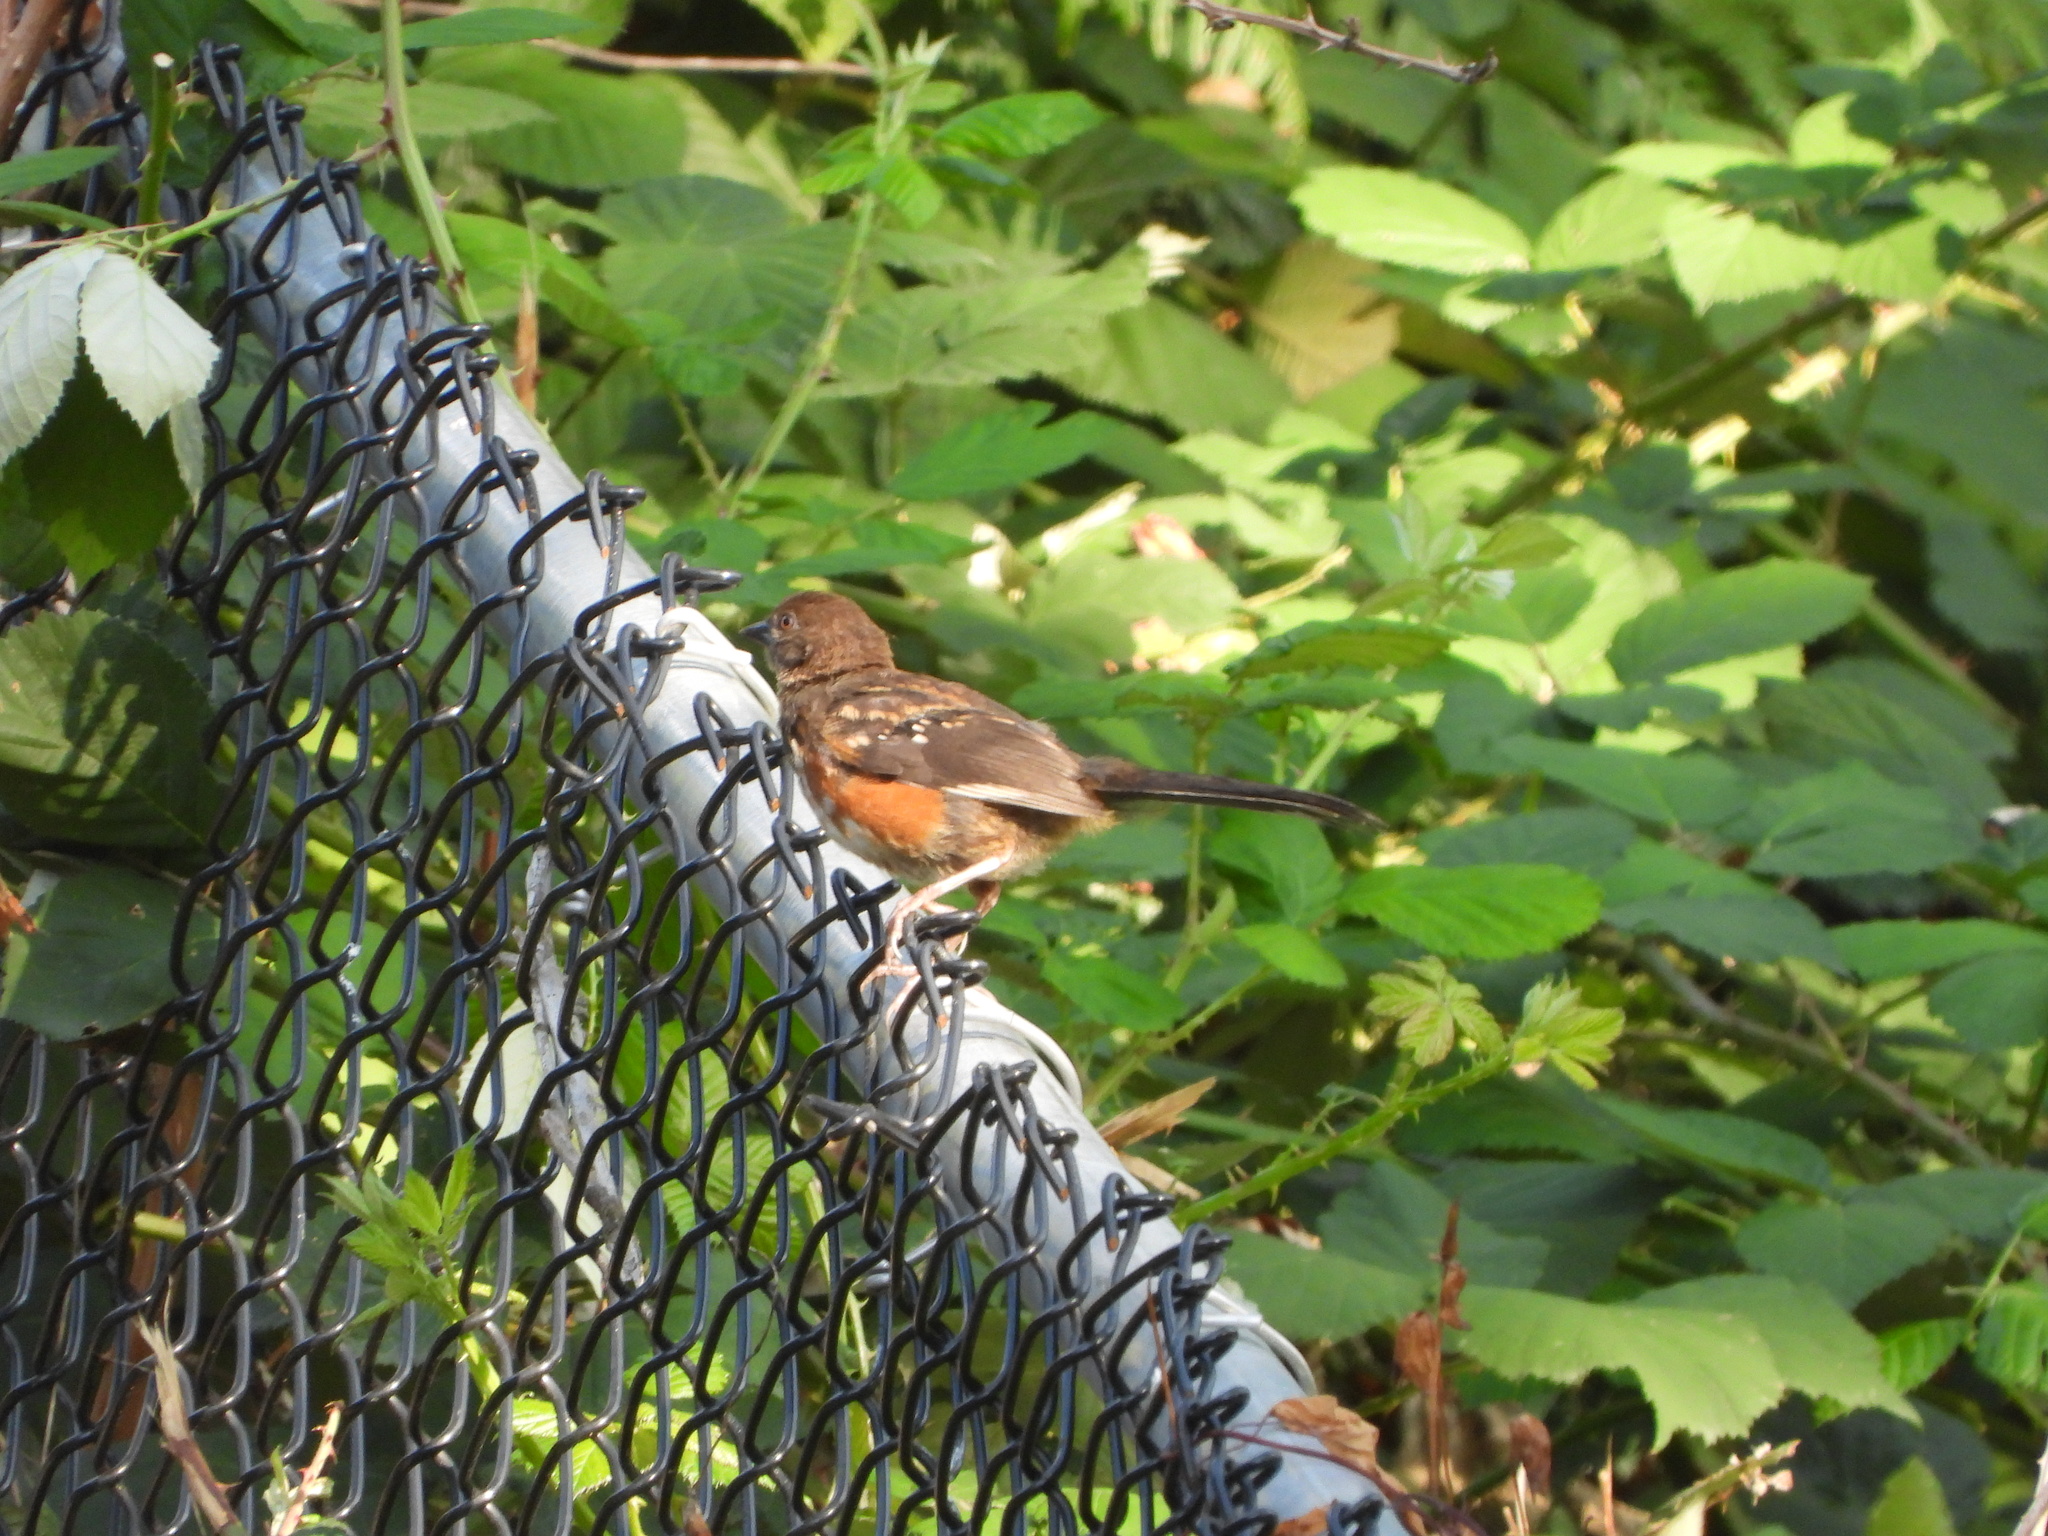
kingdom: Animalia
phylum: Chordata
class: Aves
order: Passeriformes
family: Passerellidae
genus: Pipilo
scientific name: Pipilo maculatus
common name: Spotted towhee
